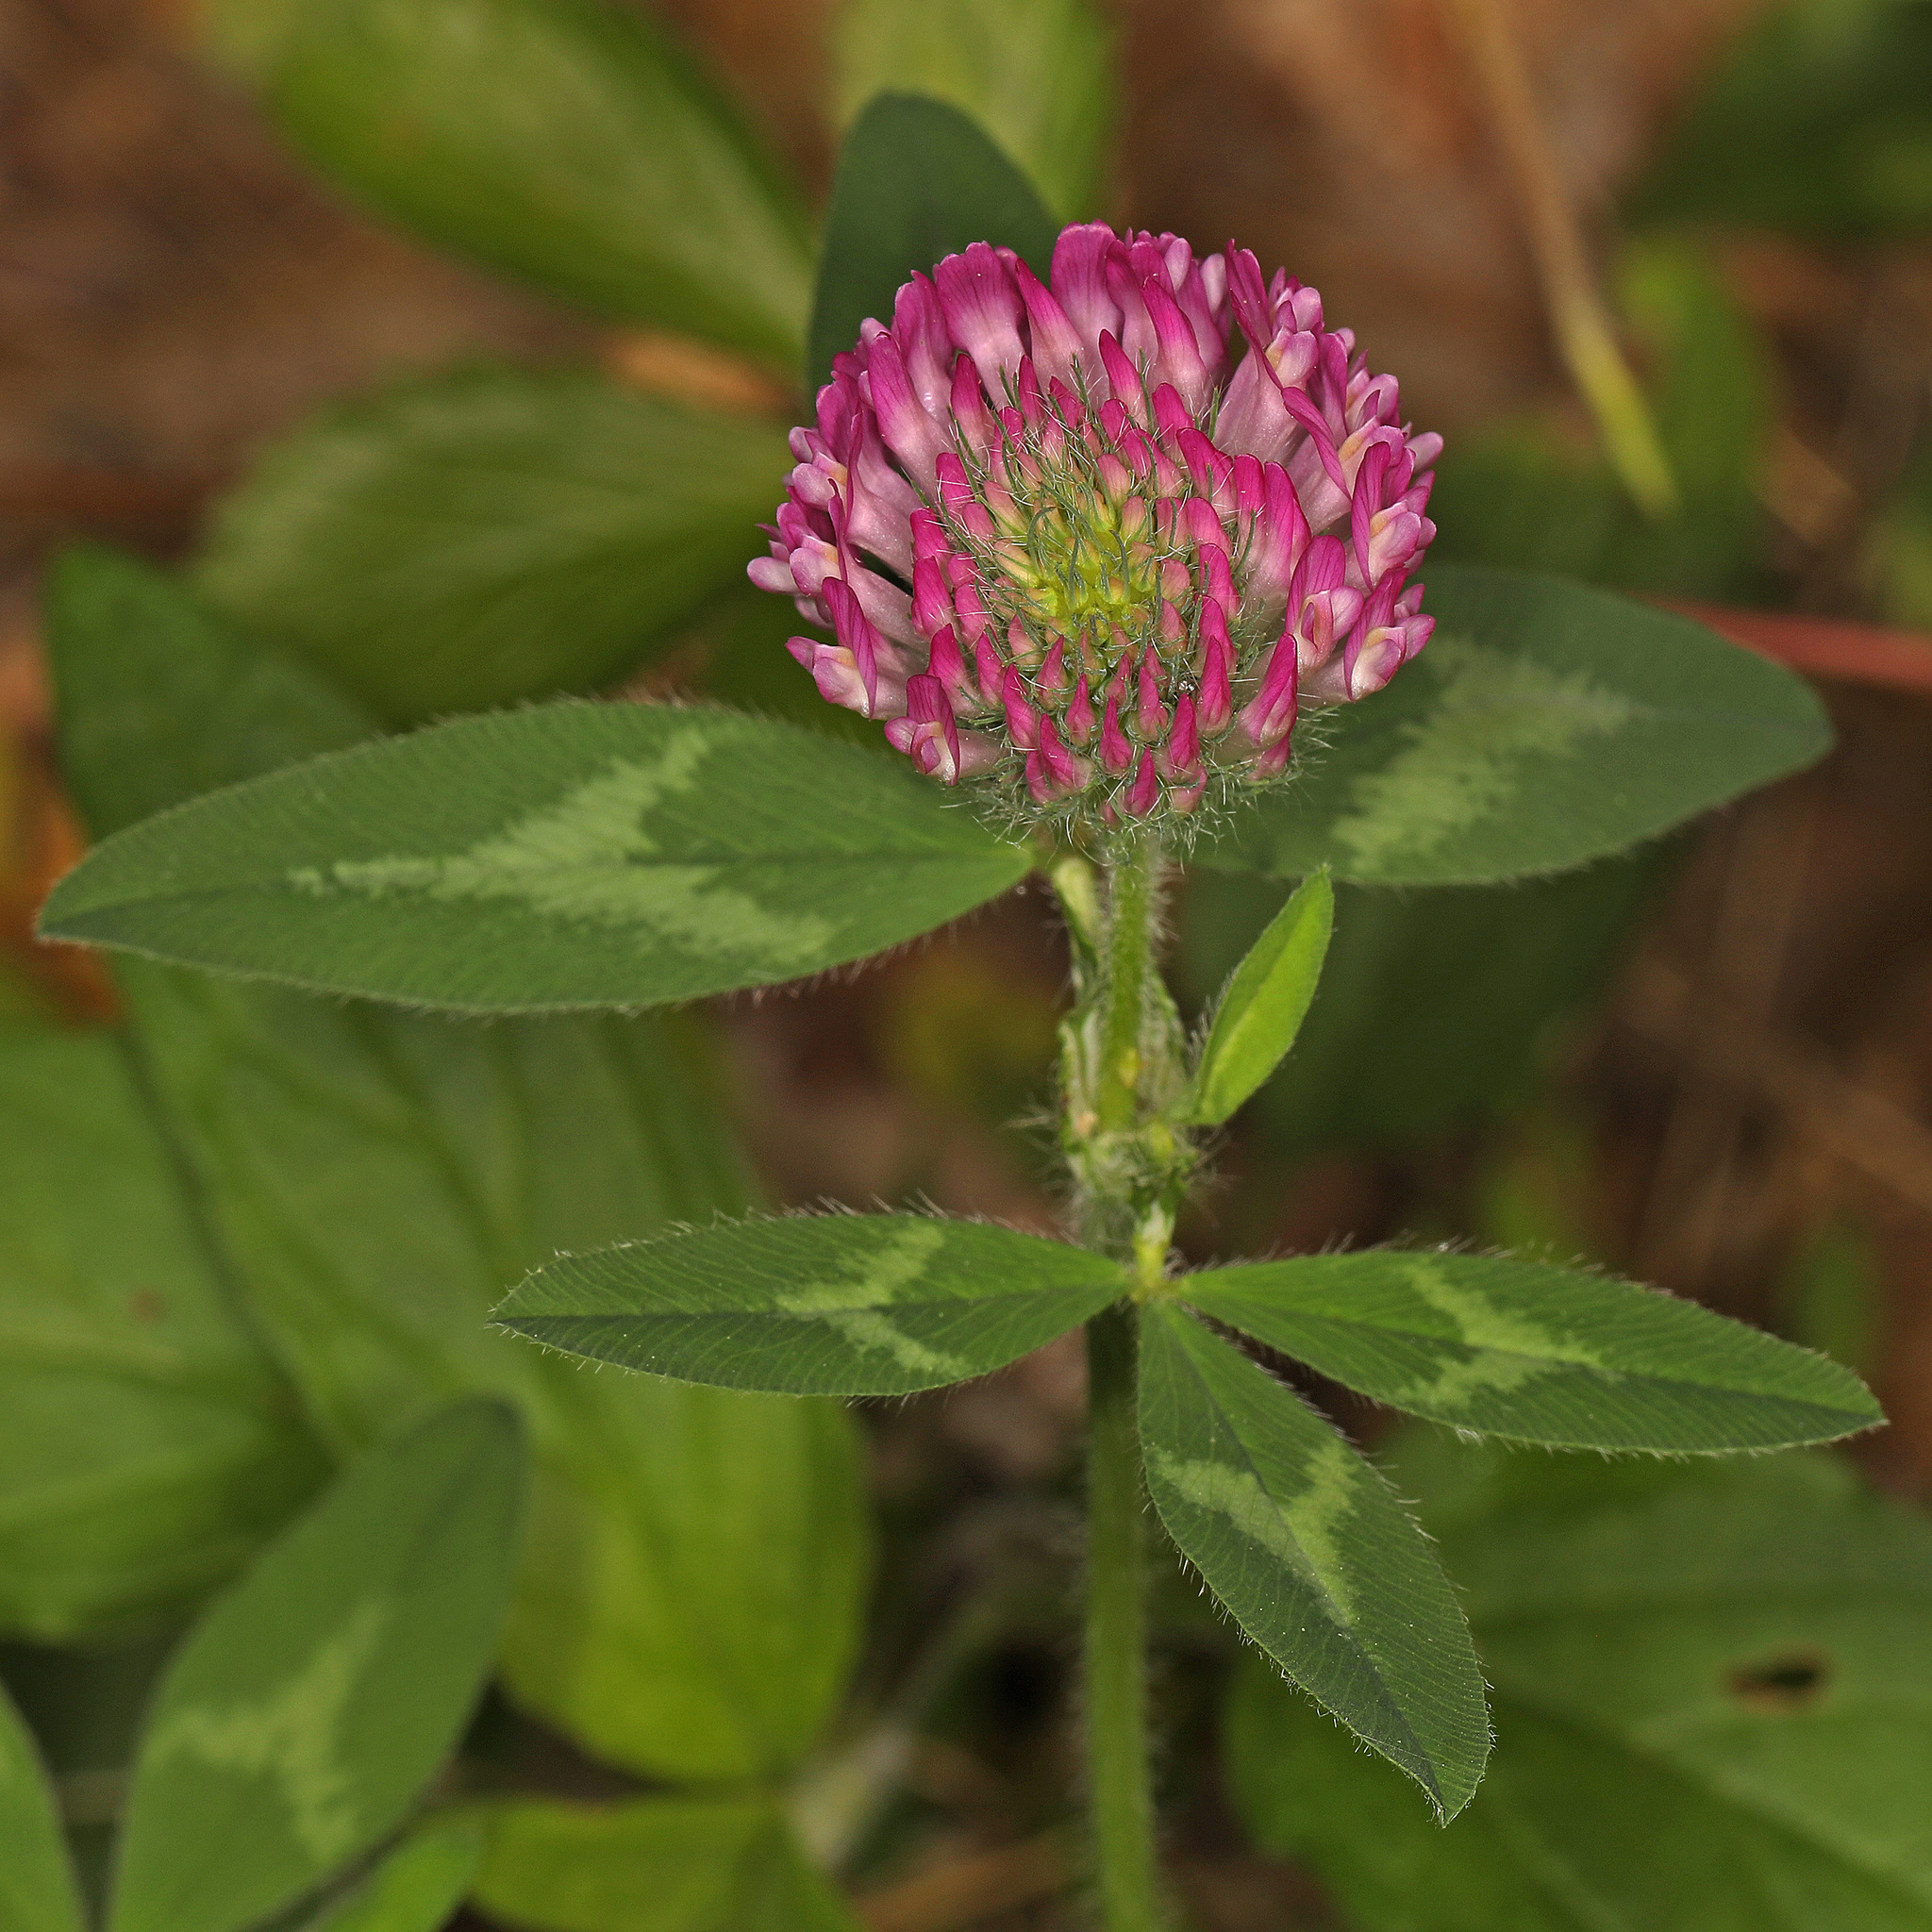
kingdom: Plantae
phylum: Tracheophyta
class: Magnoliopsida
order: Fabales
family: Fabaceae
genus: Trifolium
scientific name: Trifolium pratense
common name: Red clover
